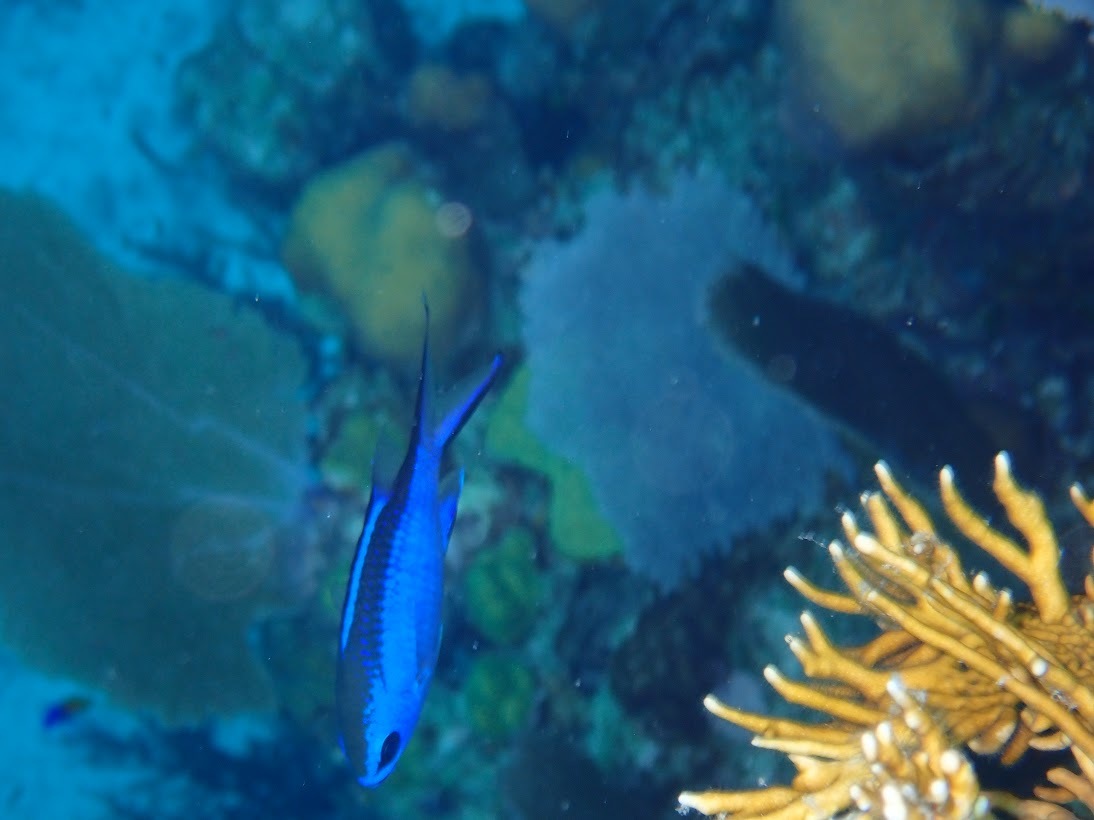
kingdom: Animalia
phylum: Chordata
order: Perciformes
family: Pomacentridae
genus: Chromis
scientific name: Chromis cyanea
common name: Blue chromis
